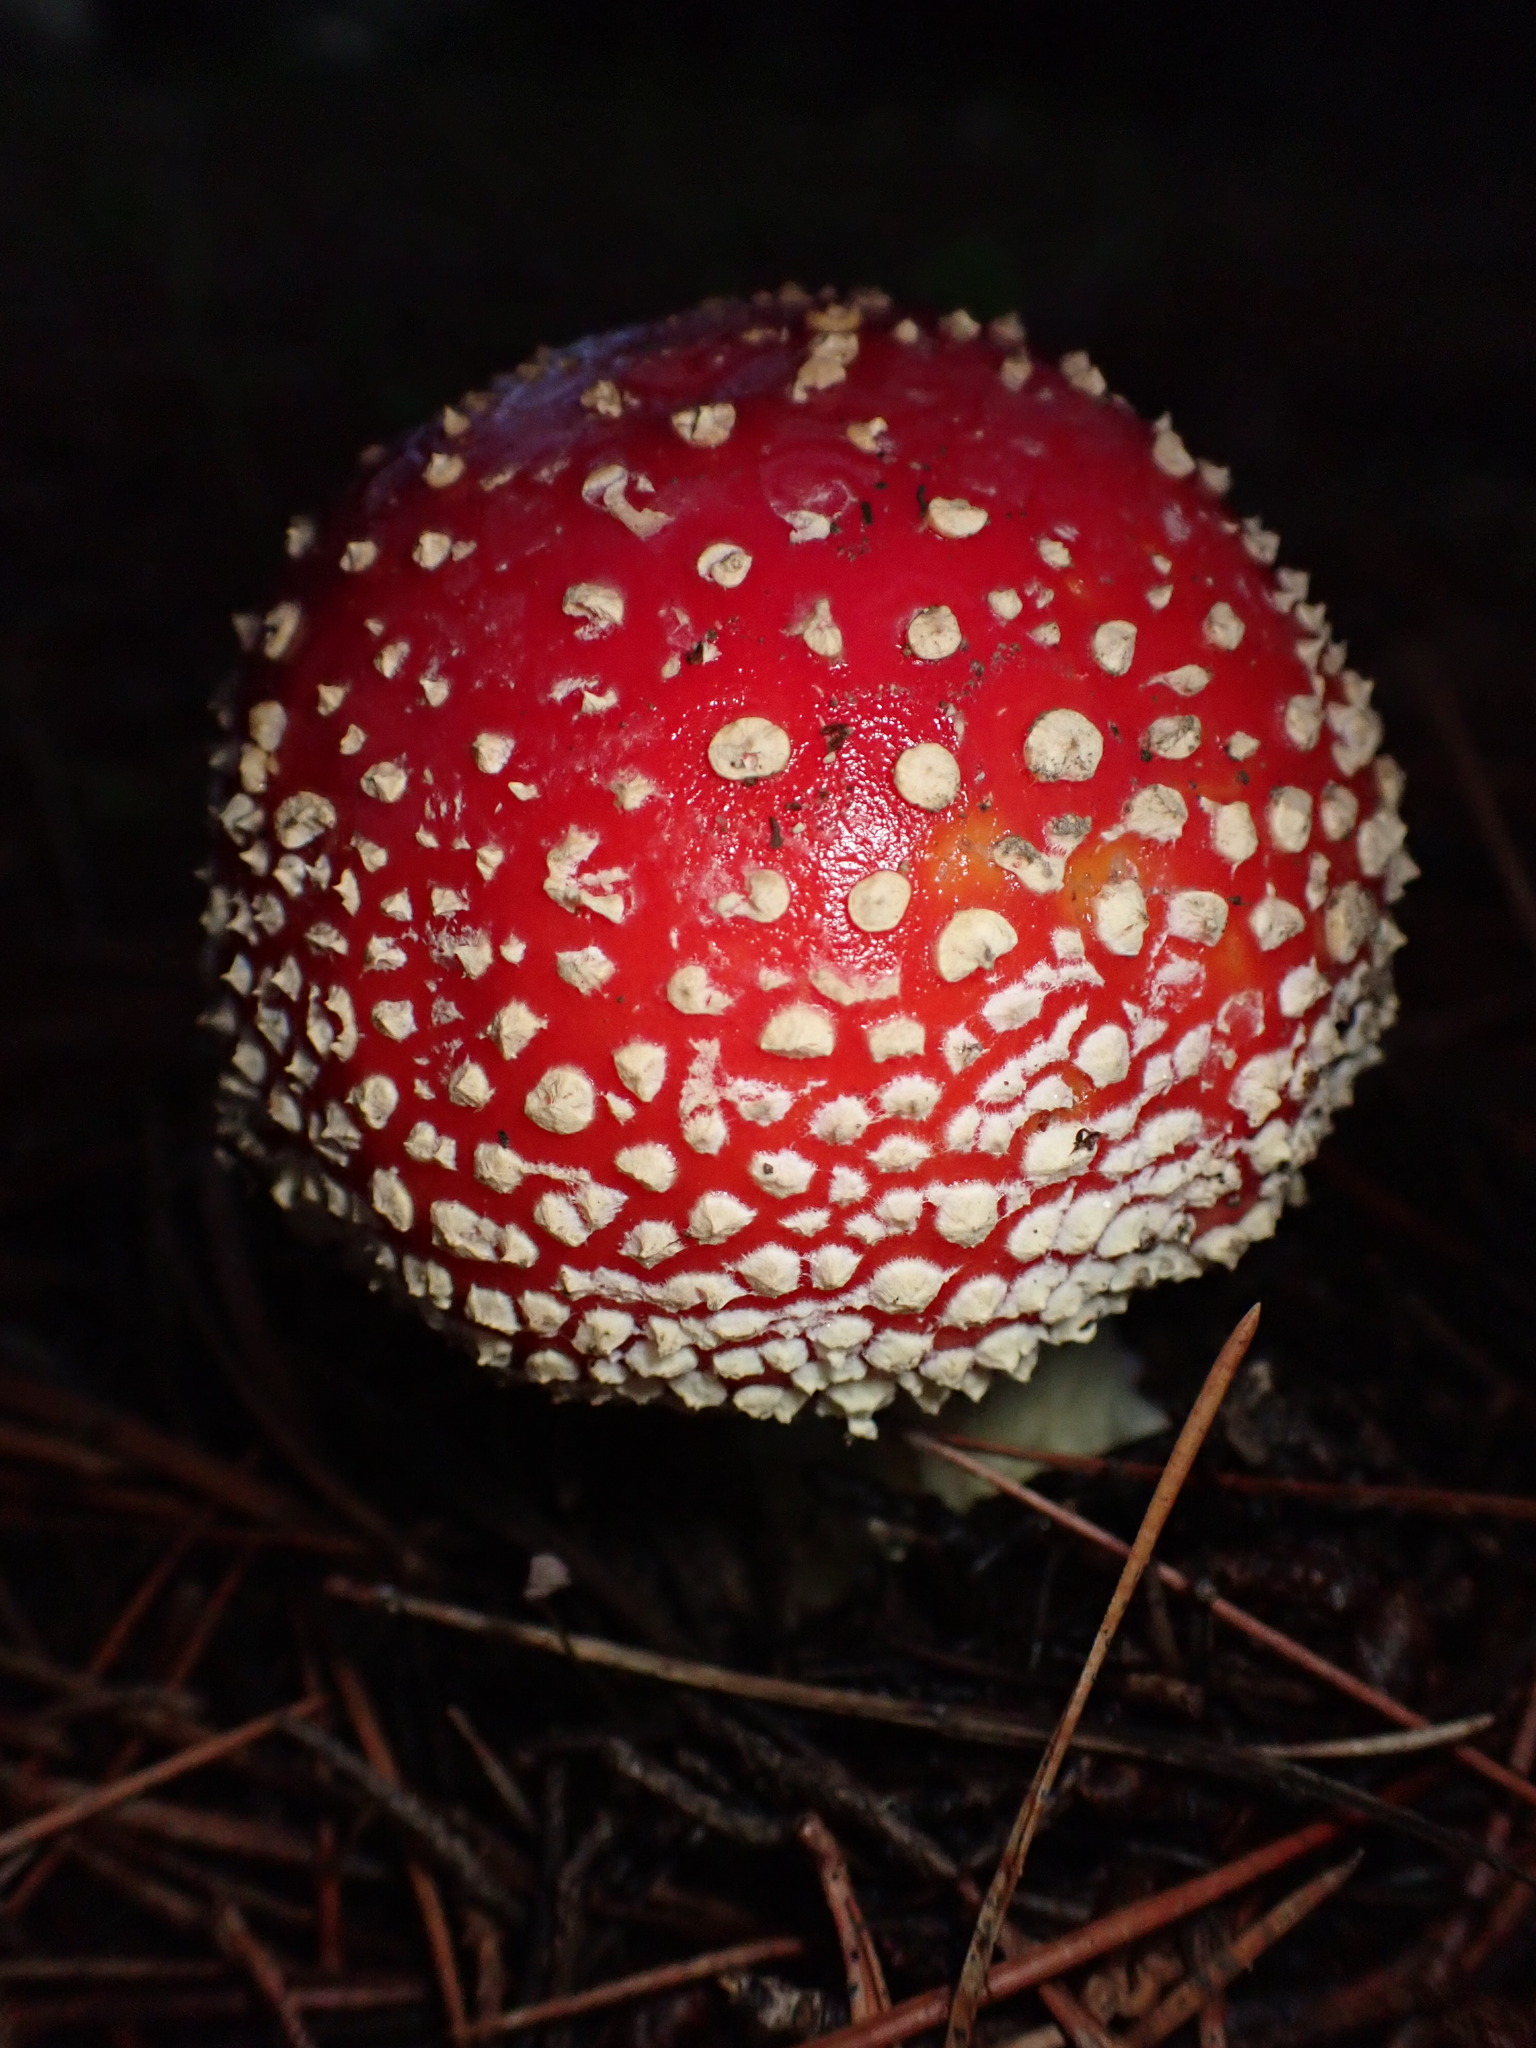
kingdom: Fungi
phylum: Basidiomycota
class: Agaricomycetes
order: Agaricales
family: Amanitaceae
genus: Amanita
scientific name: Amanita muscaria
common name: Fly agaric
